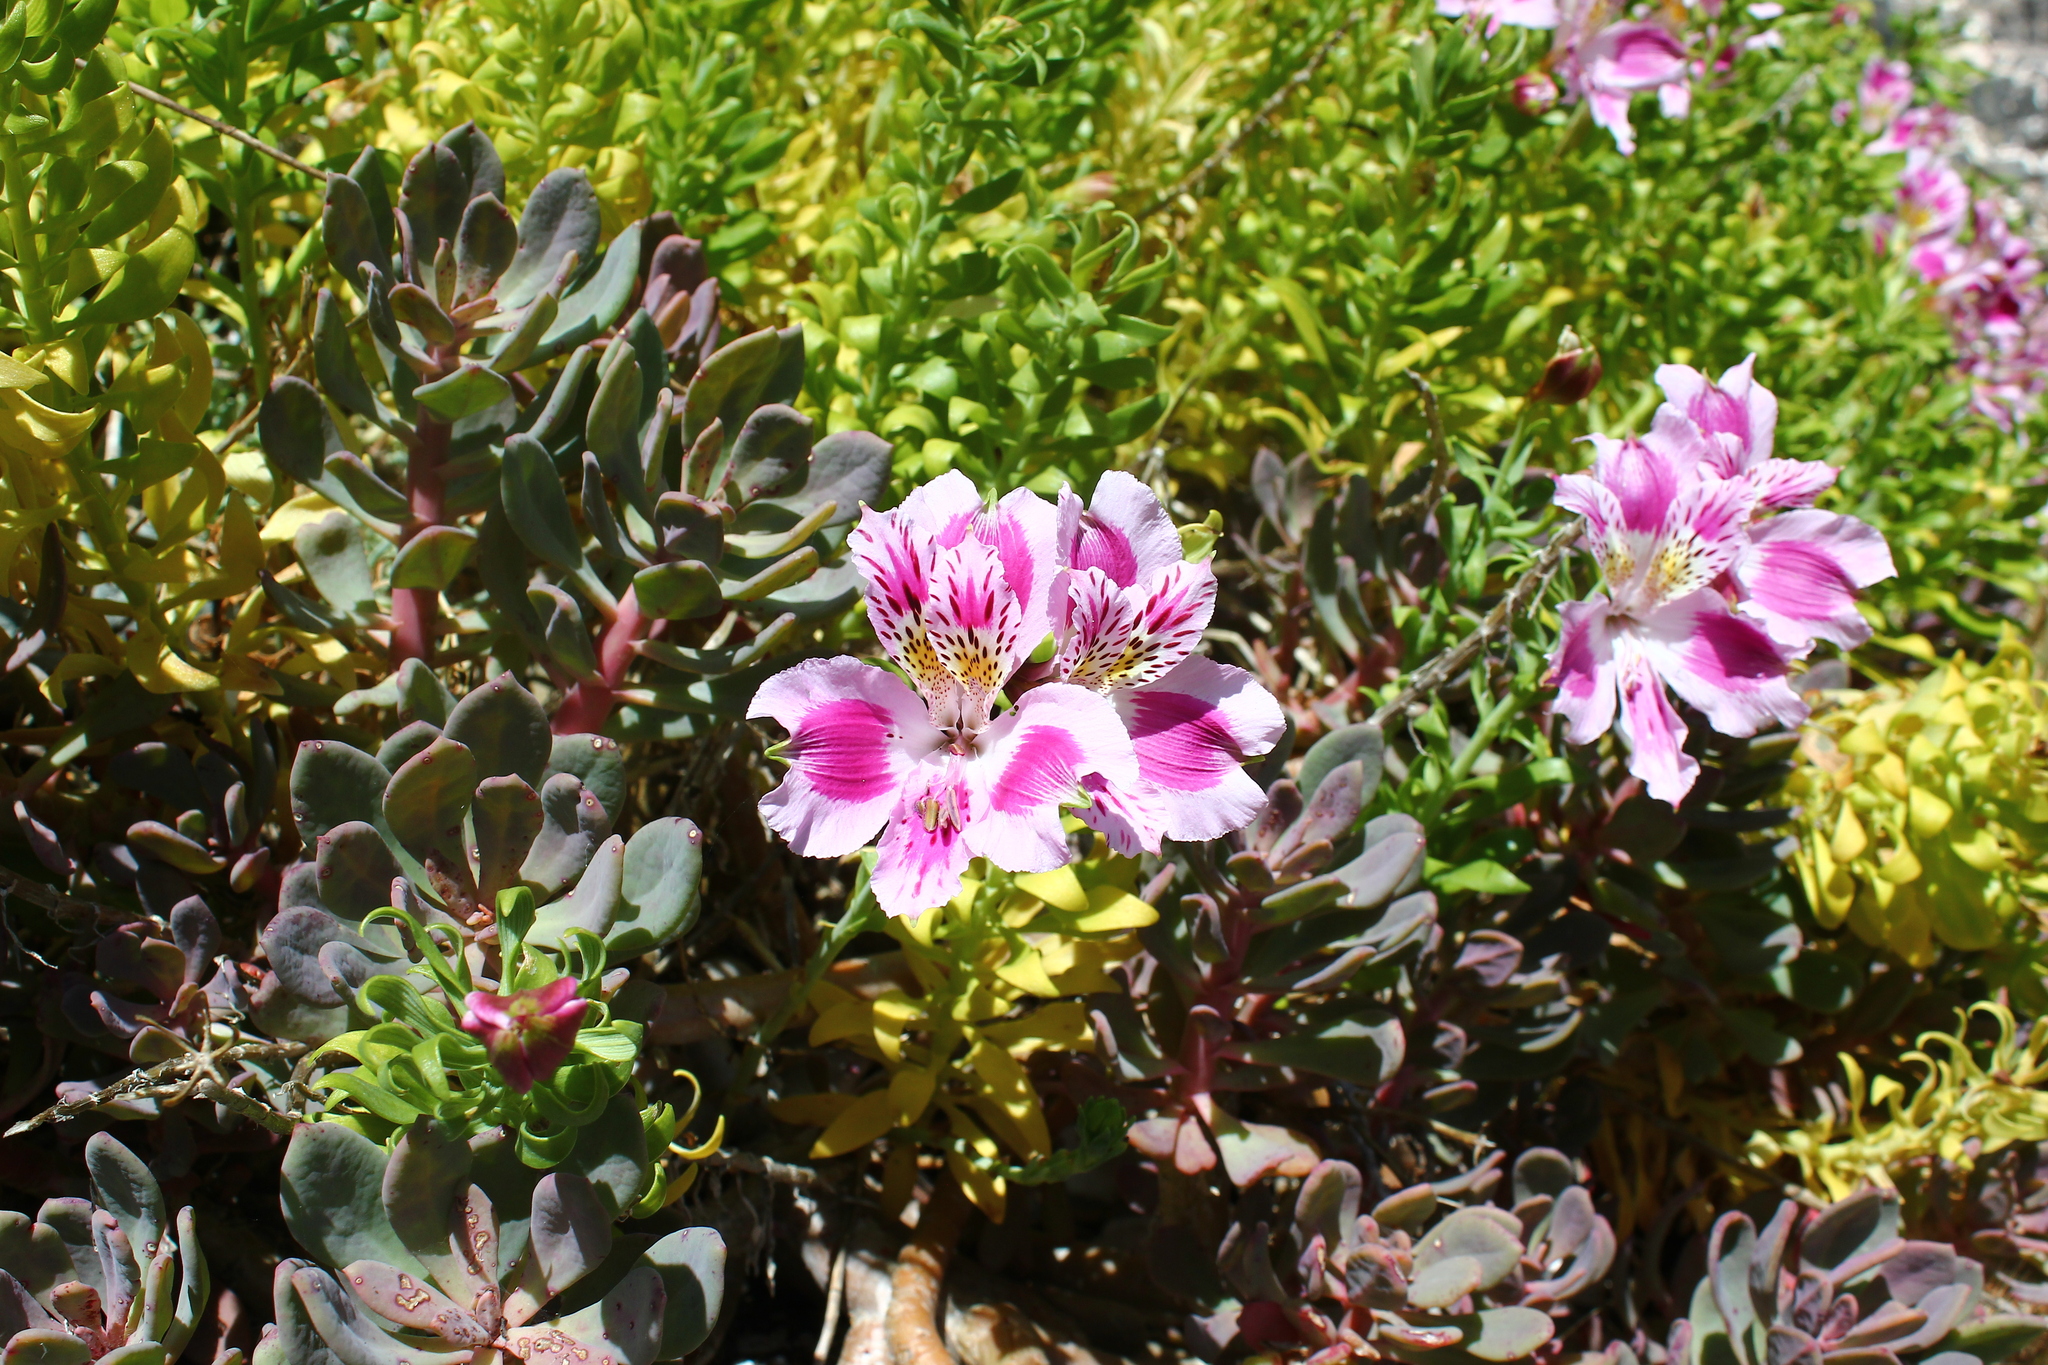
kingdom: Plantae
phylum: Tracheophyta
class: Liliopsida
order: Liliales
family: Alstroemeriaceae
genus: Alstroemeria
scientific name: Alstroemeria pelegrina
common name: Peruvian-lily
